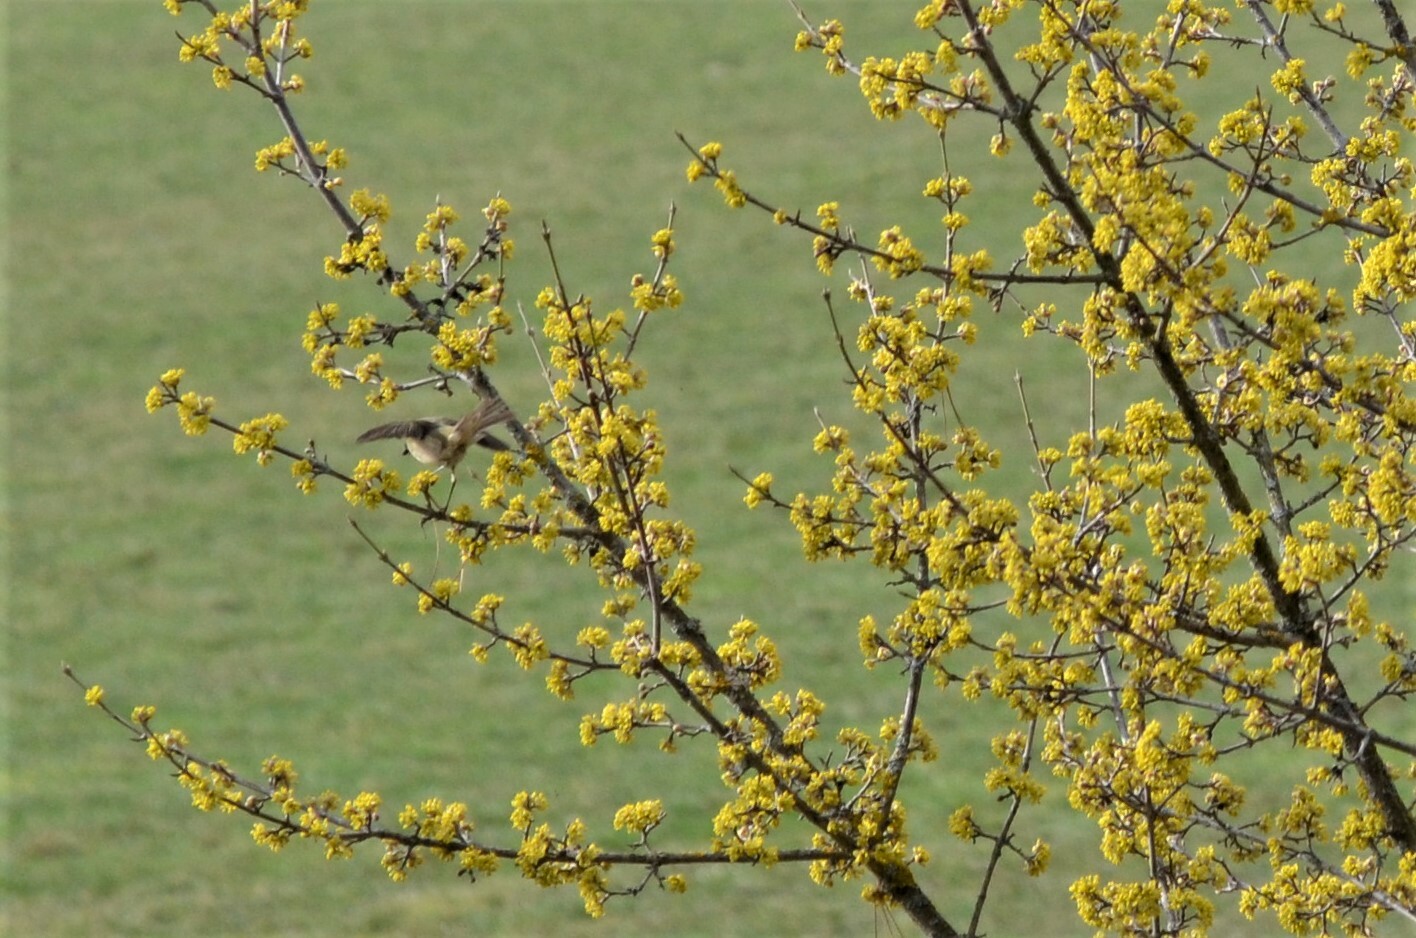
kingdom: Animalia
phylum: Chordata
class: Aves
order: Passeriformes
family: Phylloscopidae
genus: Phylloscopus
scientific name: Phylloscopus collybita
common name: Common chiffchaff
